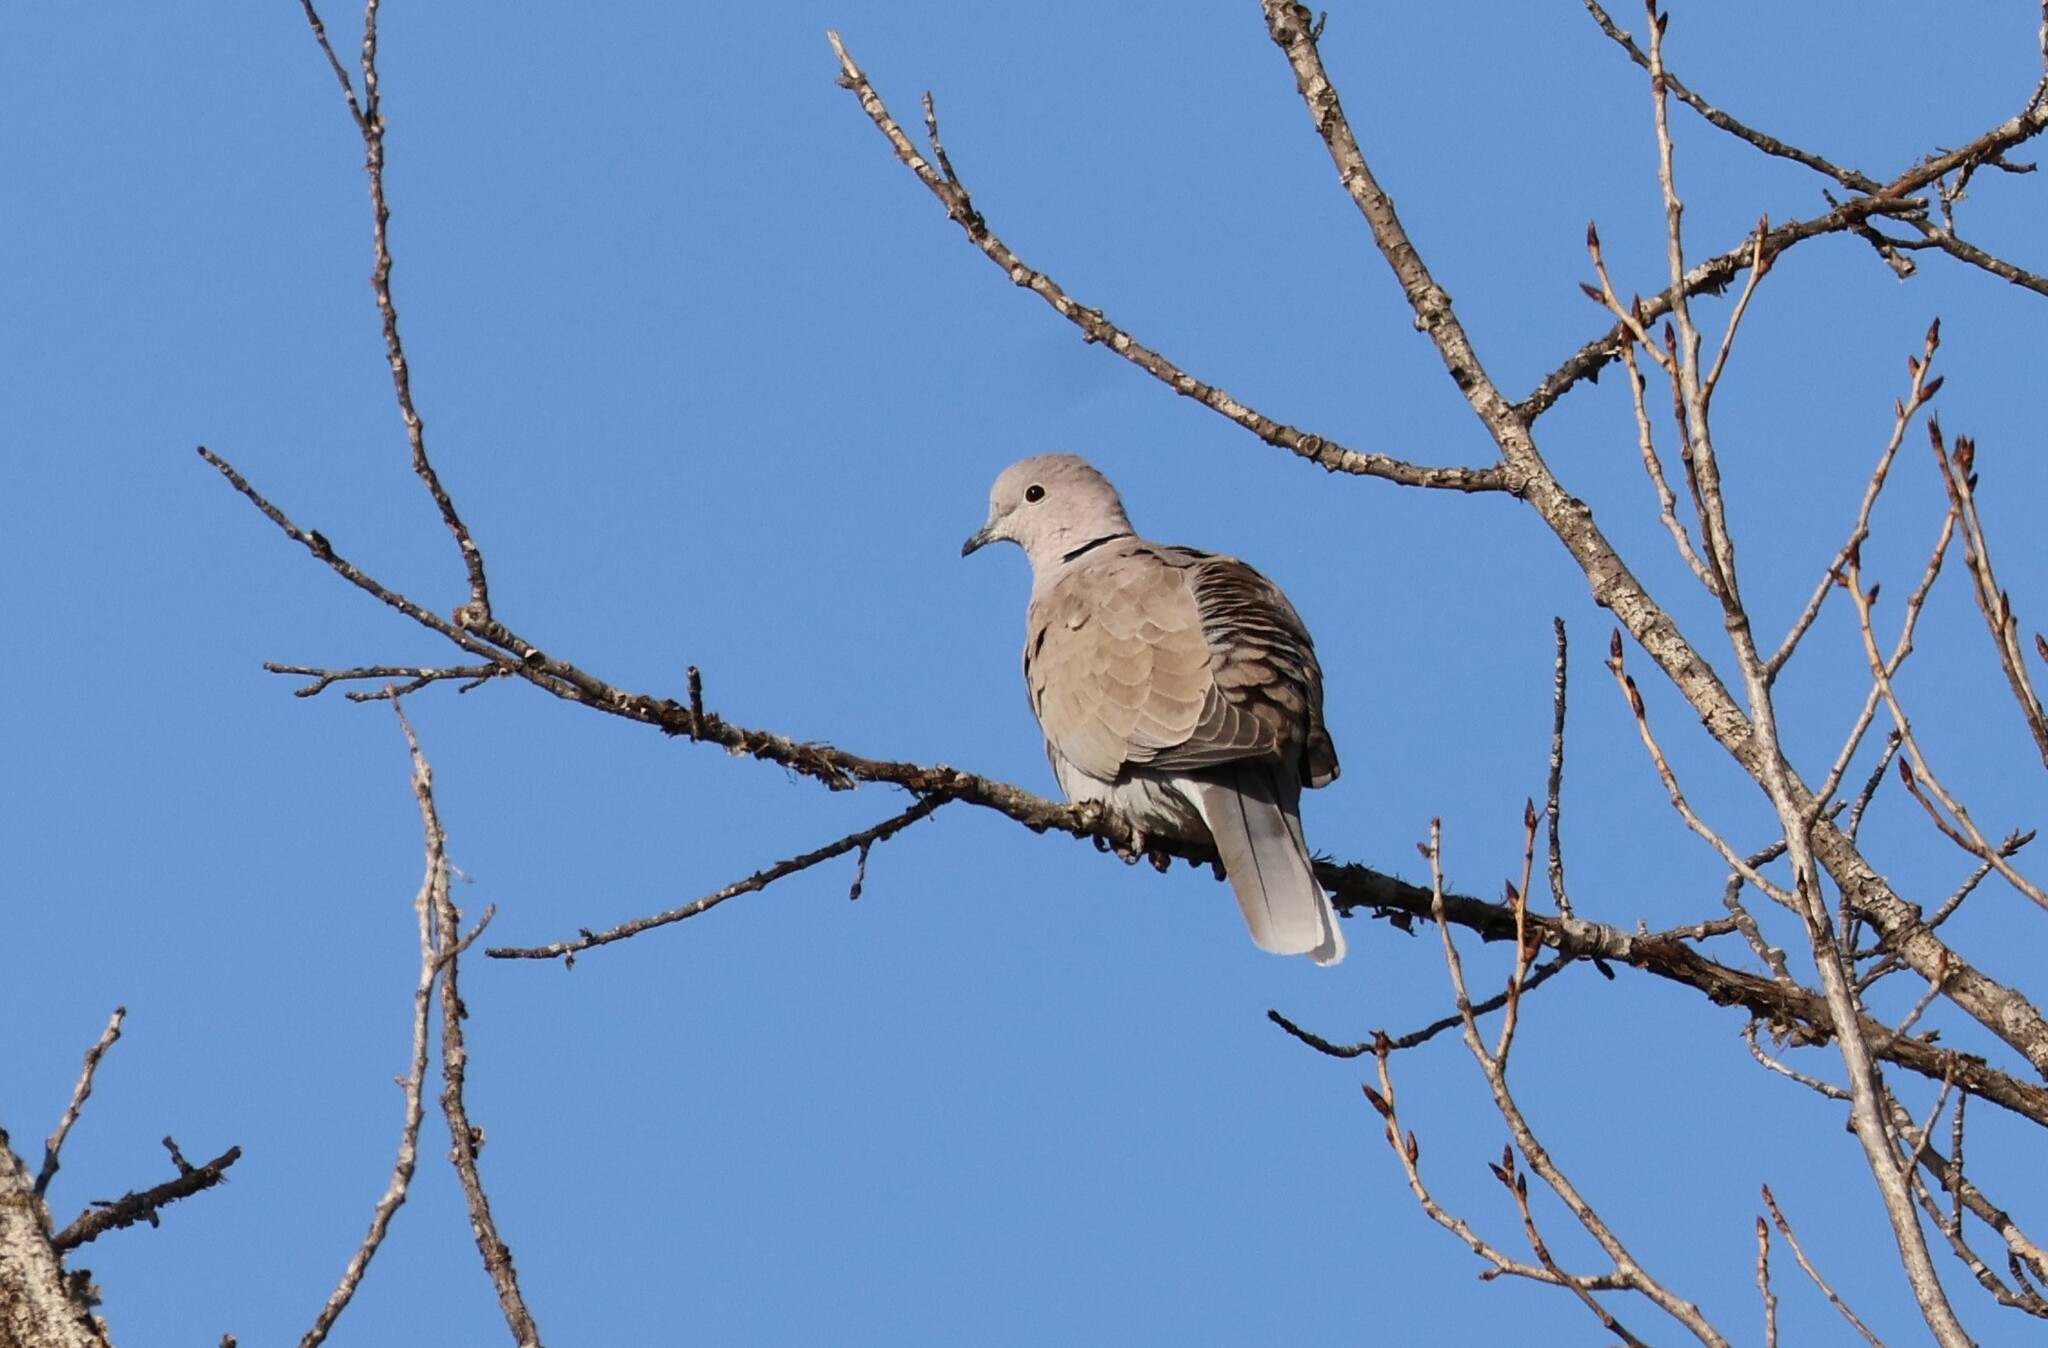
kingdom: Animalia
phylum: Chordata
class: Aves
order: Columbiformes
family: Columbidae
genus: Streptopelia
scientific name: Streptopelia decaocto
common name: Eurasian collared dove
